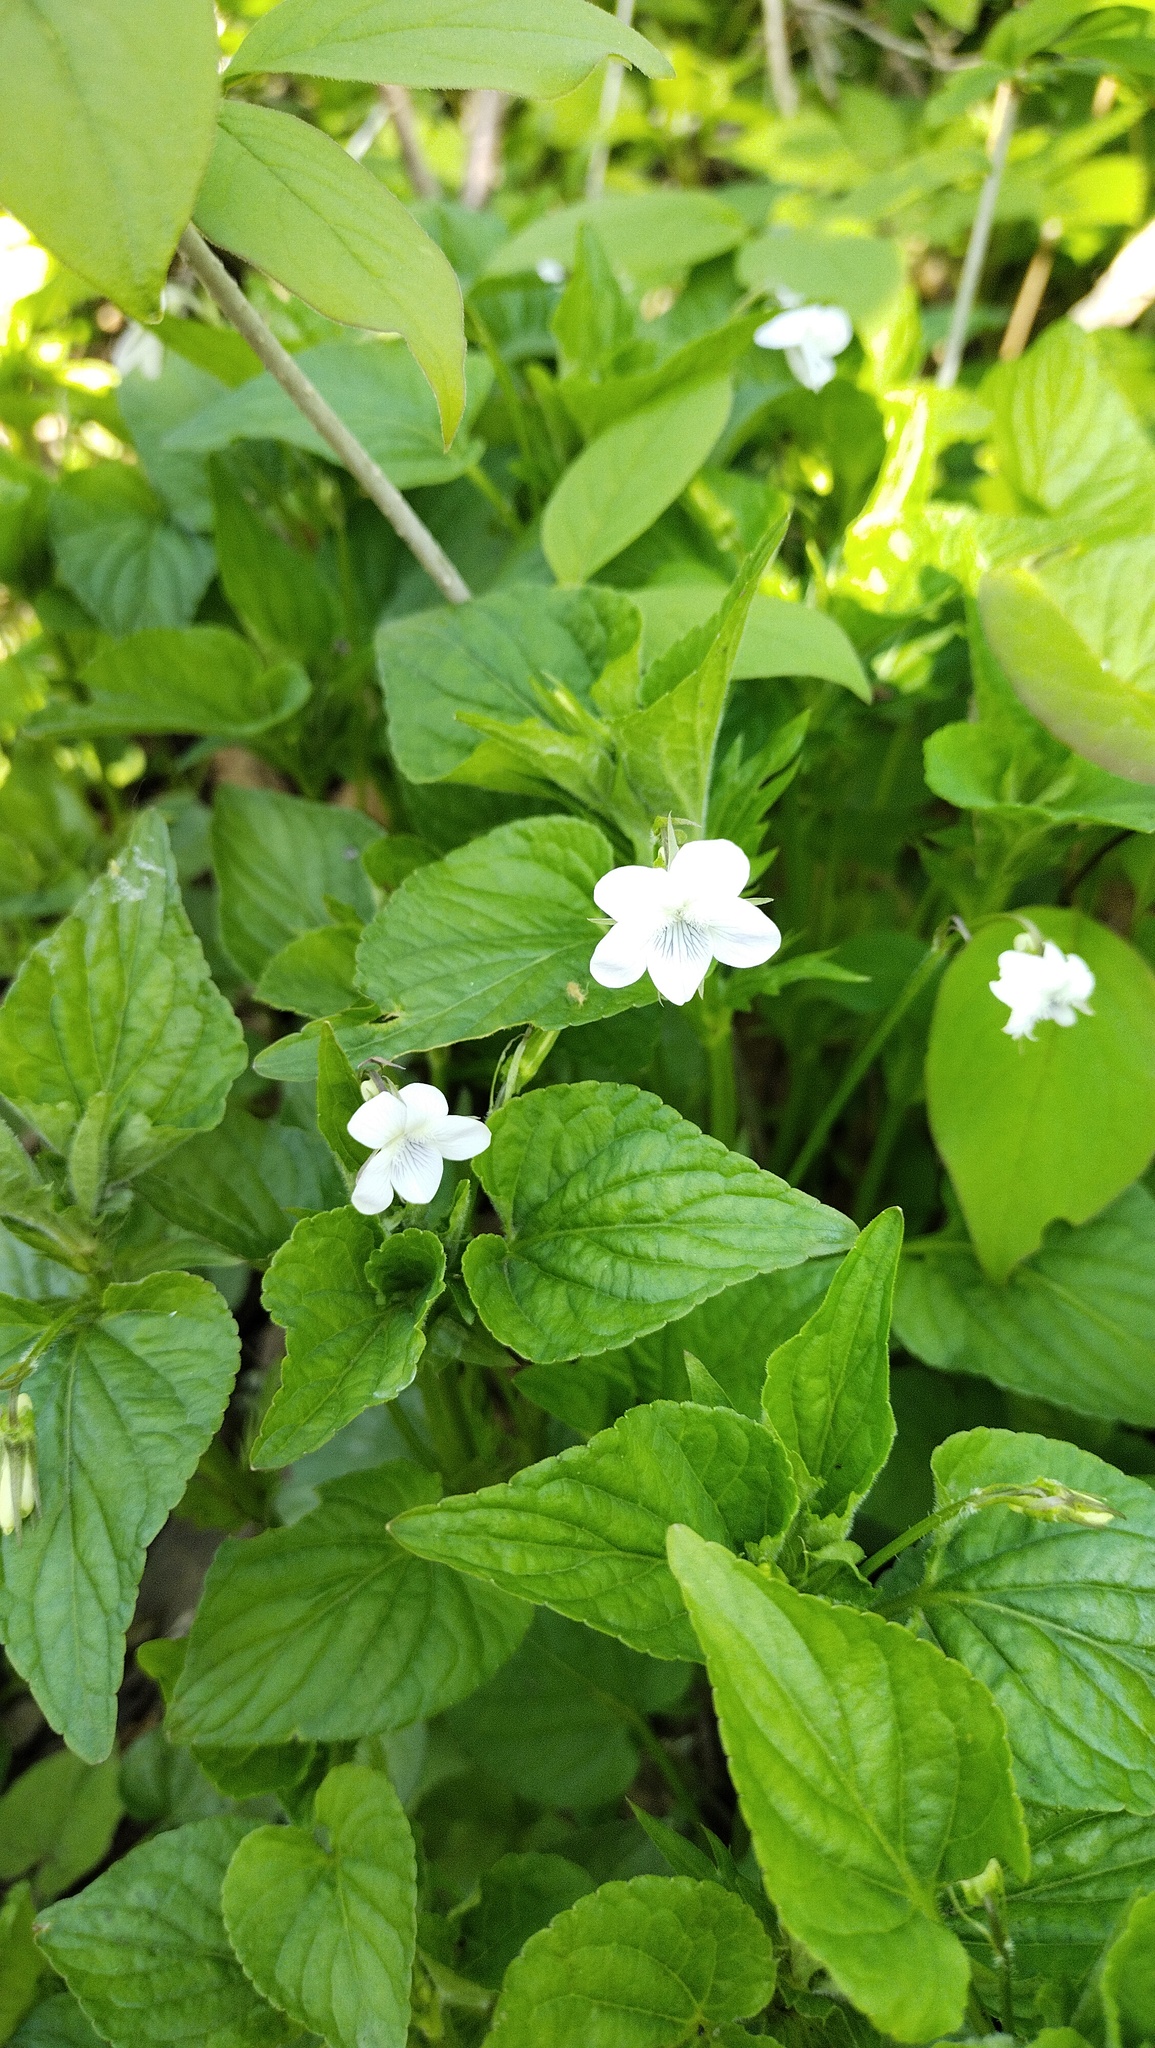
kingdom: Plantae
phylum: Tracheophyta
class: Magnoliopsida
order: Malpighiales
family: Violaceae
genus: Viola
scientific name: Viola acuminata
